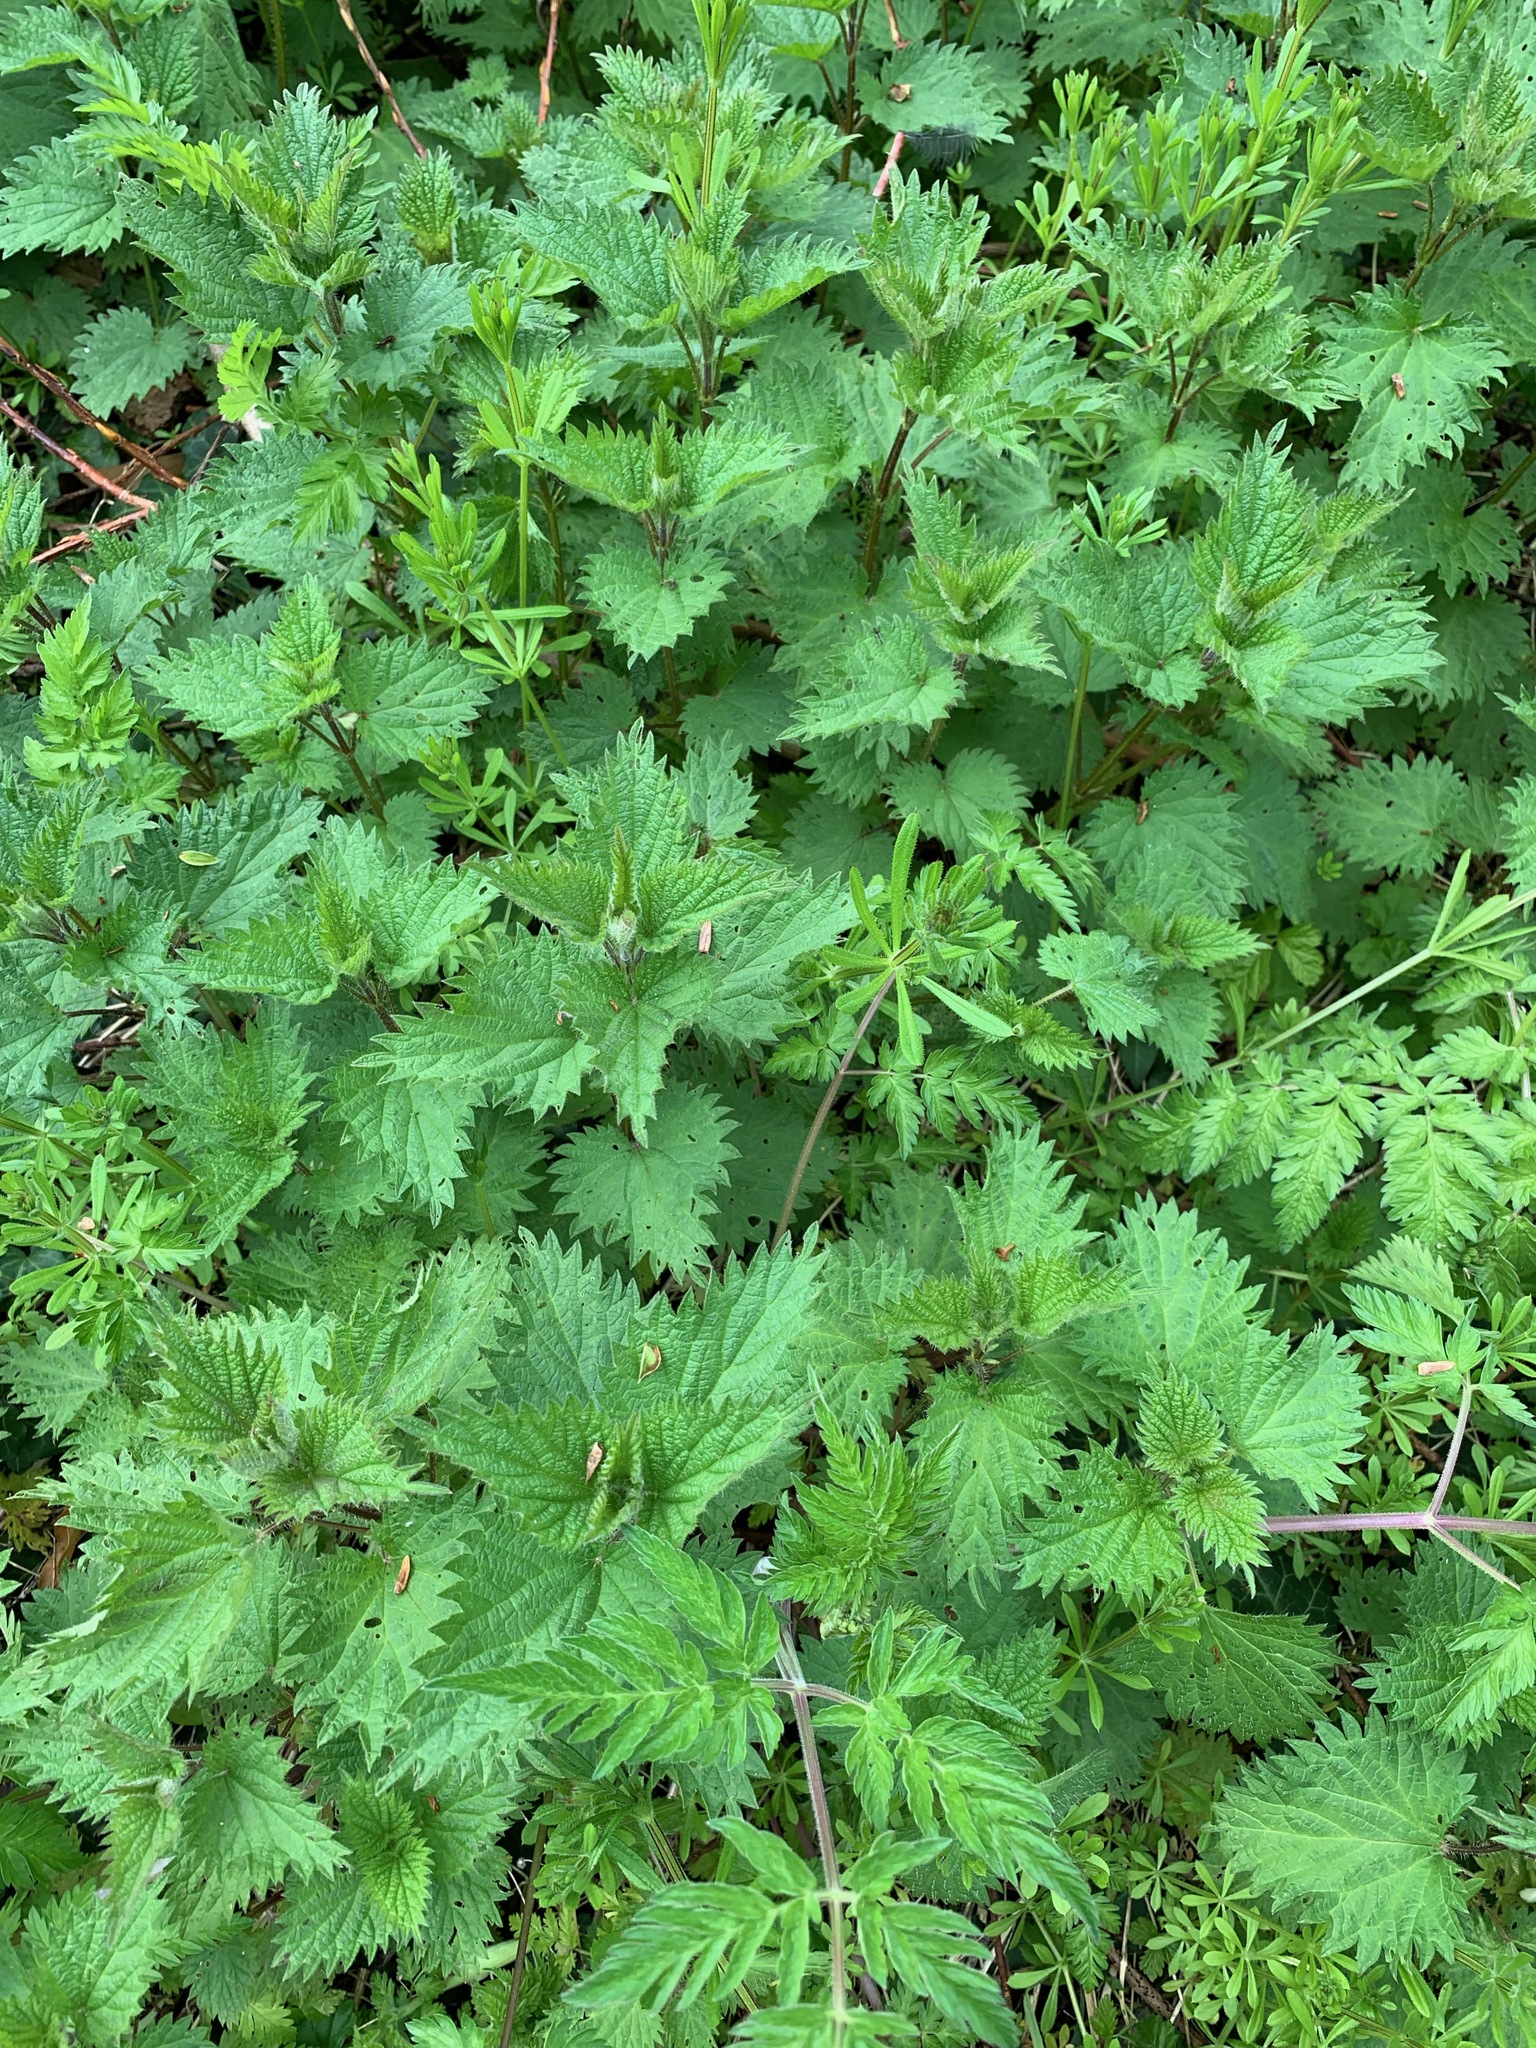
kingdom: Plantae
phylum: Tracheophyta
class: Magnoliopsida
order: Rosales
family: Urticaceae
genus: Urtica
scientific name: Urtica dioica
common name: Common nettle
